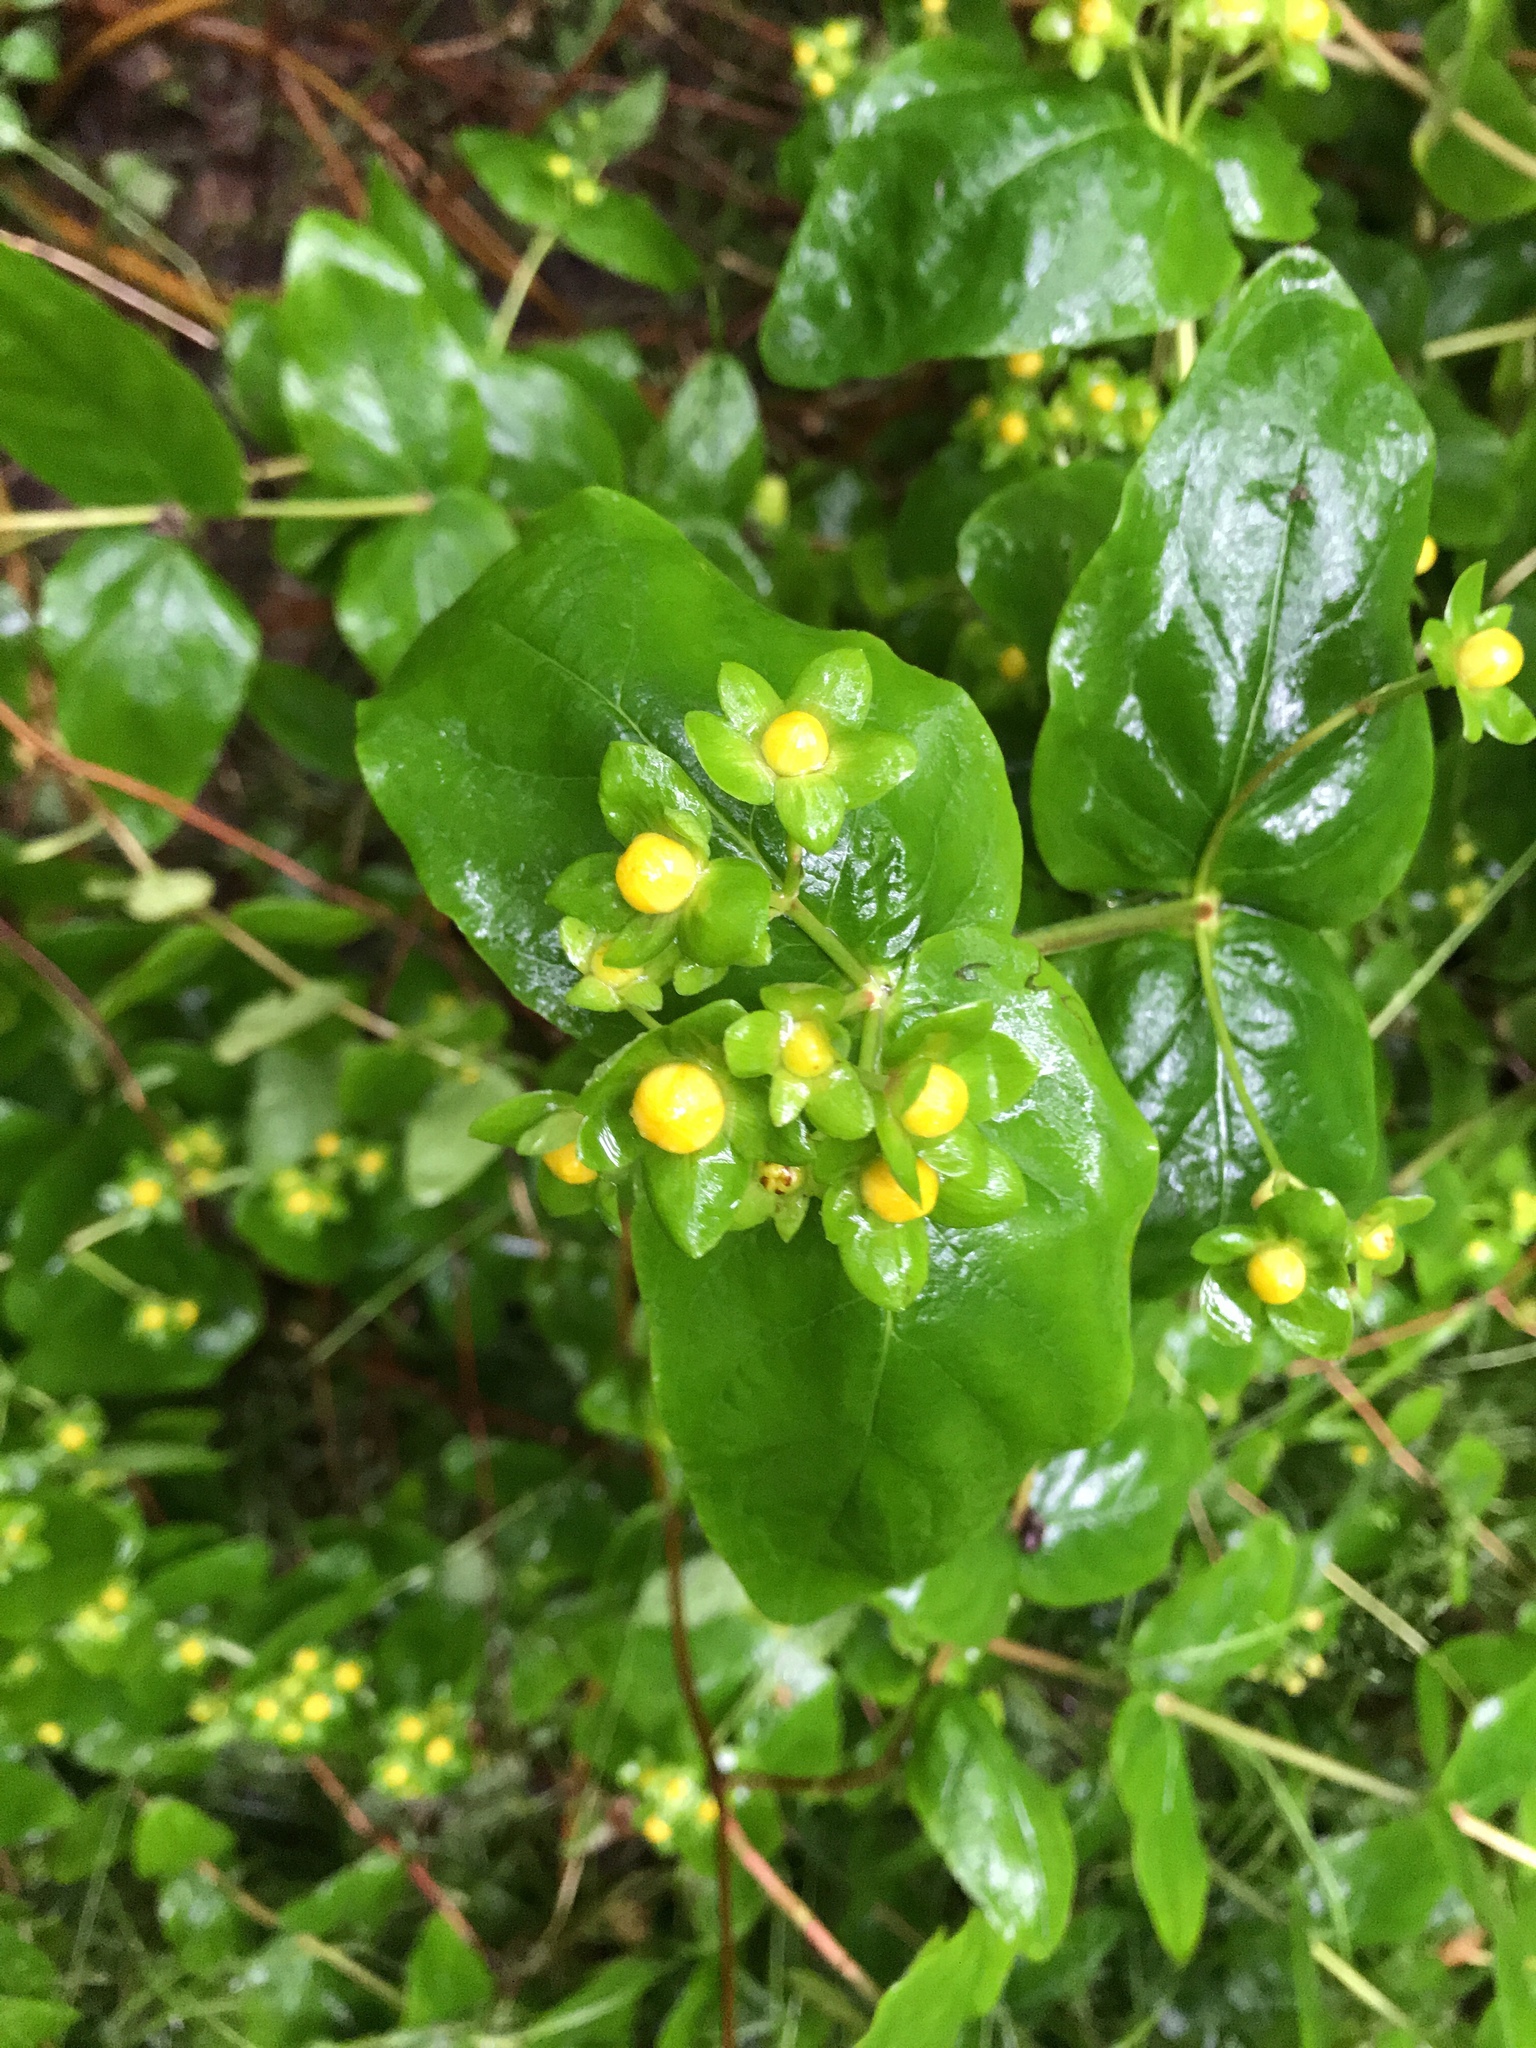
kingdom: Plantae
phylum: Tracheophyta
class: Magnoliopsida
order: Malpighiales
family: Hypericaceae
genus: Hypericum
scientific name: Hypericum androsaemum
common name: Sweet-amber
